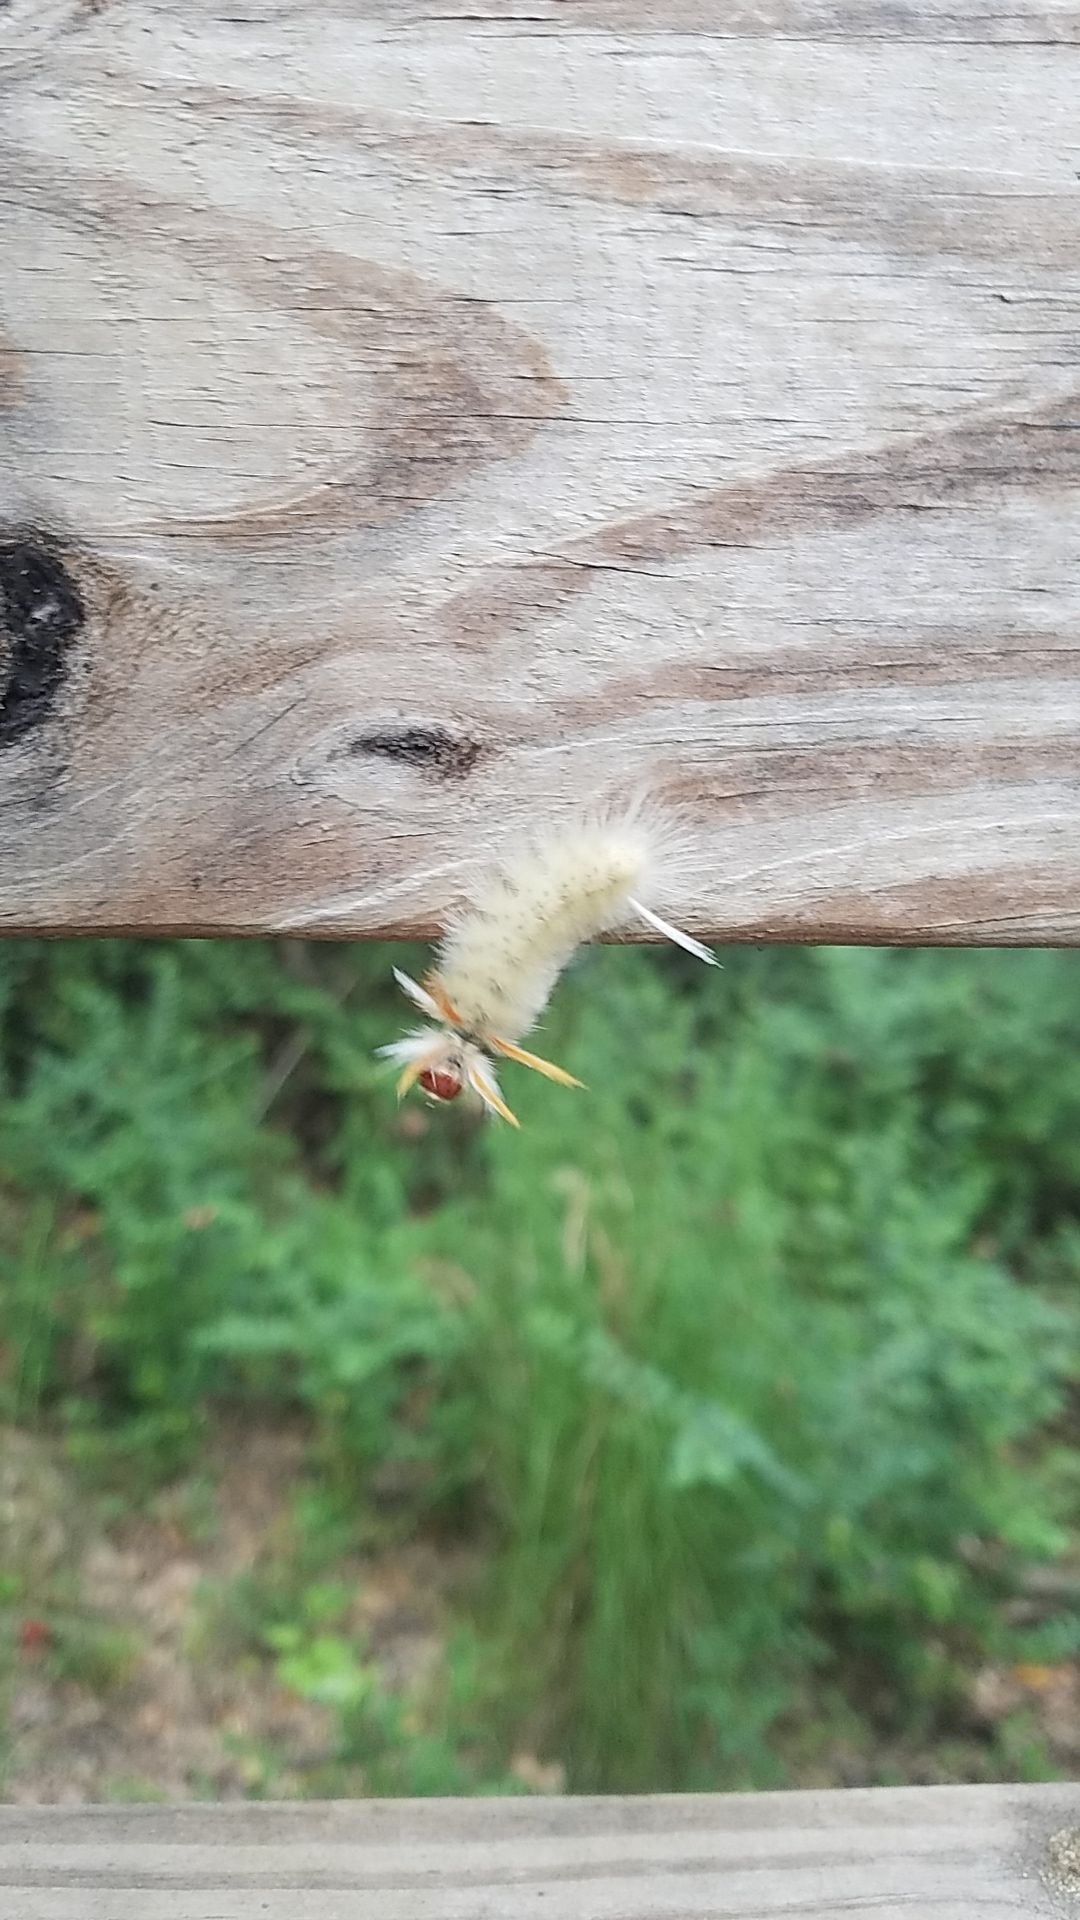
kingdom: Animalia
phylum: Arthropoda
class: Insecta
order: Lepidoptera
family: Erebidae
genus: Halysidota
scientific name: Halysidota harrisii
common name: Sycamore tussock moth
